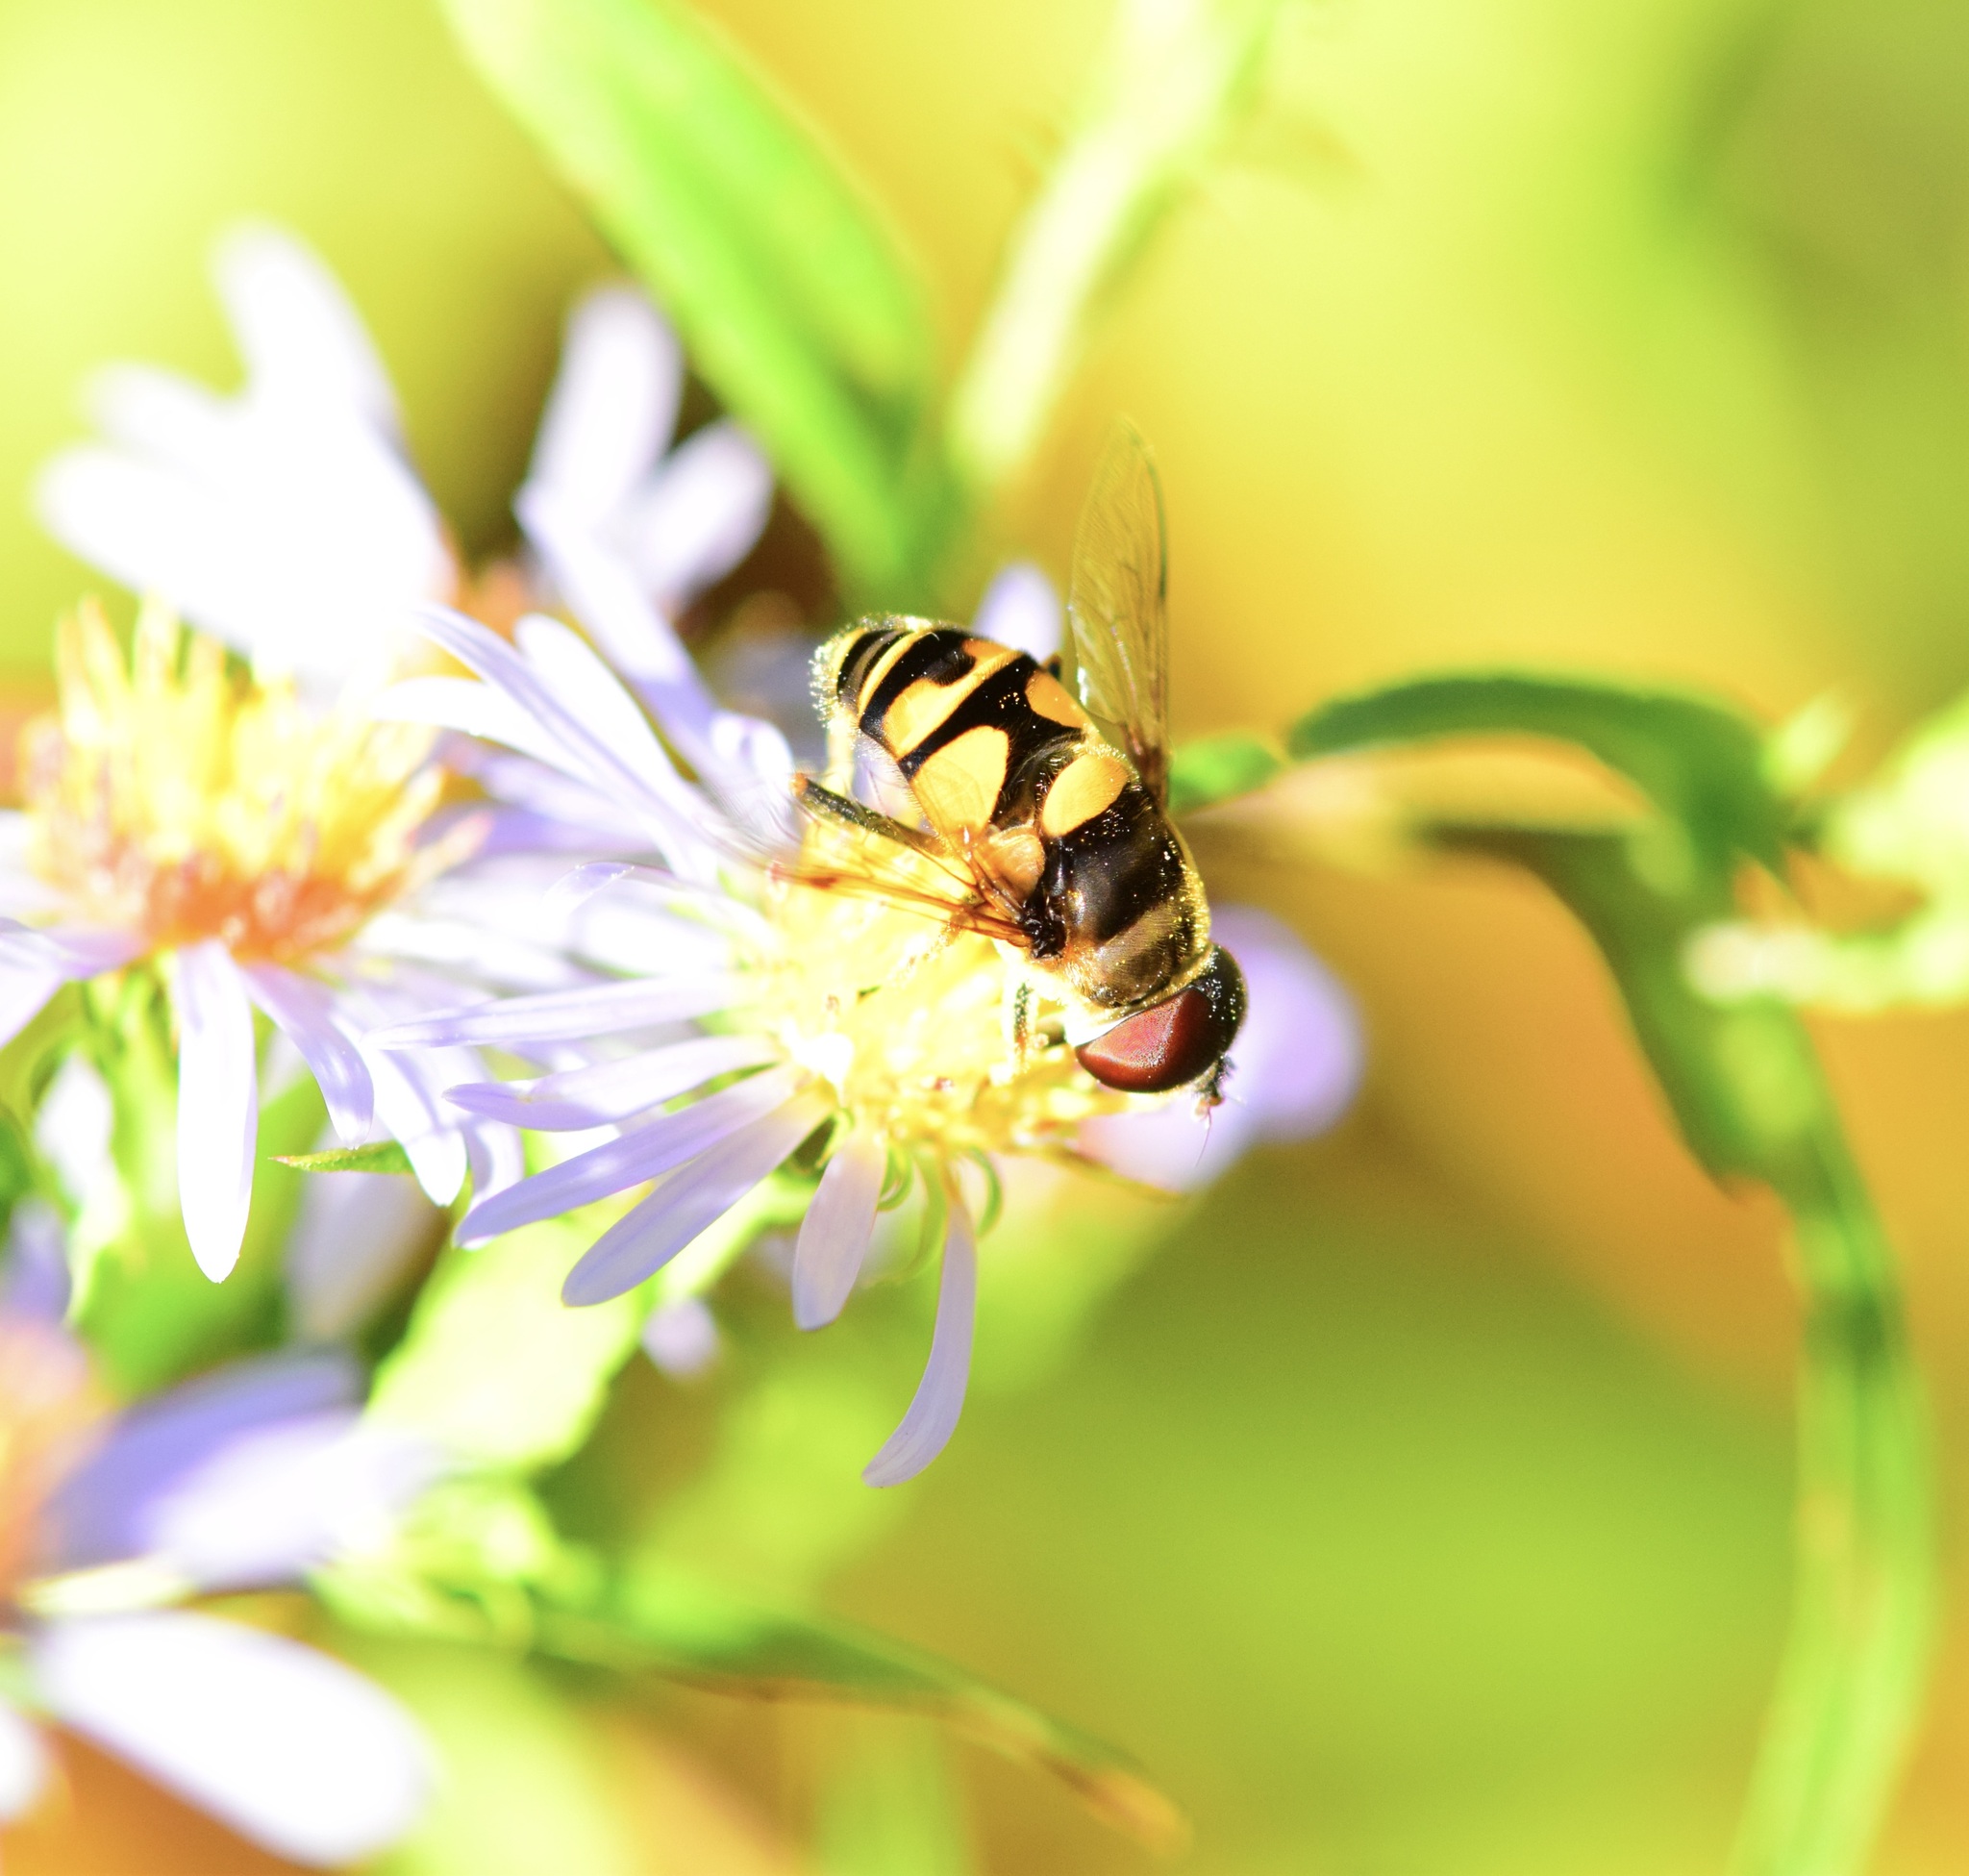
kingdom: Animalia
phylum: Arthropoda
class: Insecta
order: Diptera
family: Syrphidae
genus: Eristalis
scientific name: Eristalis transversa
